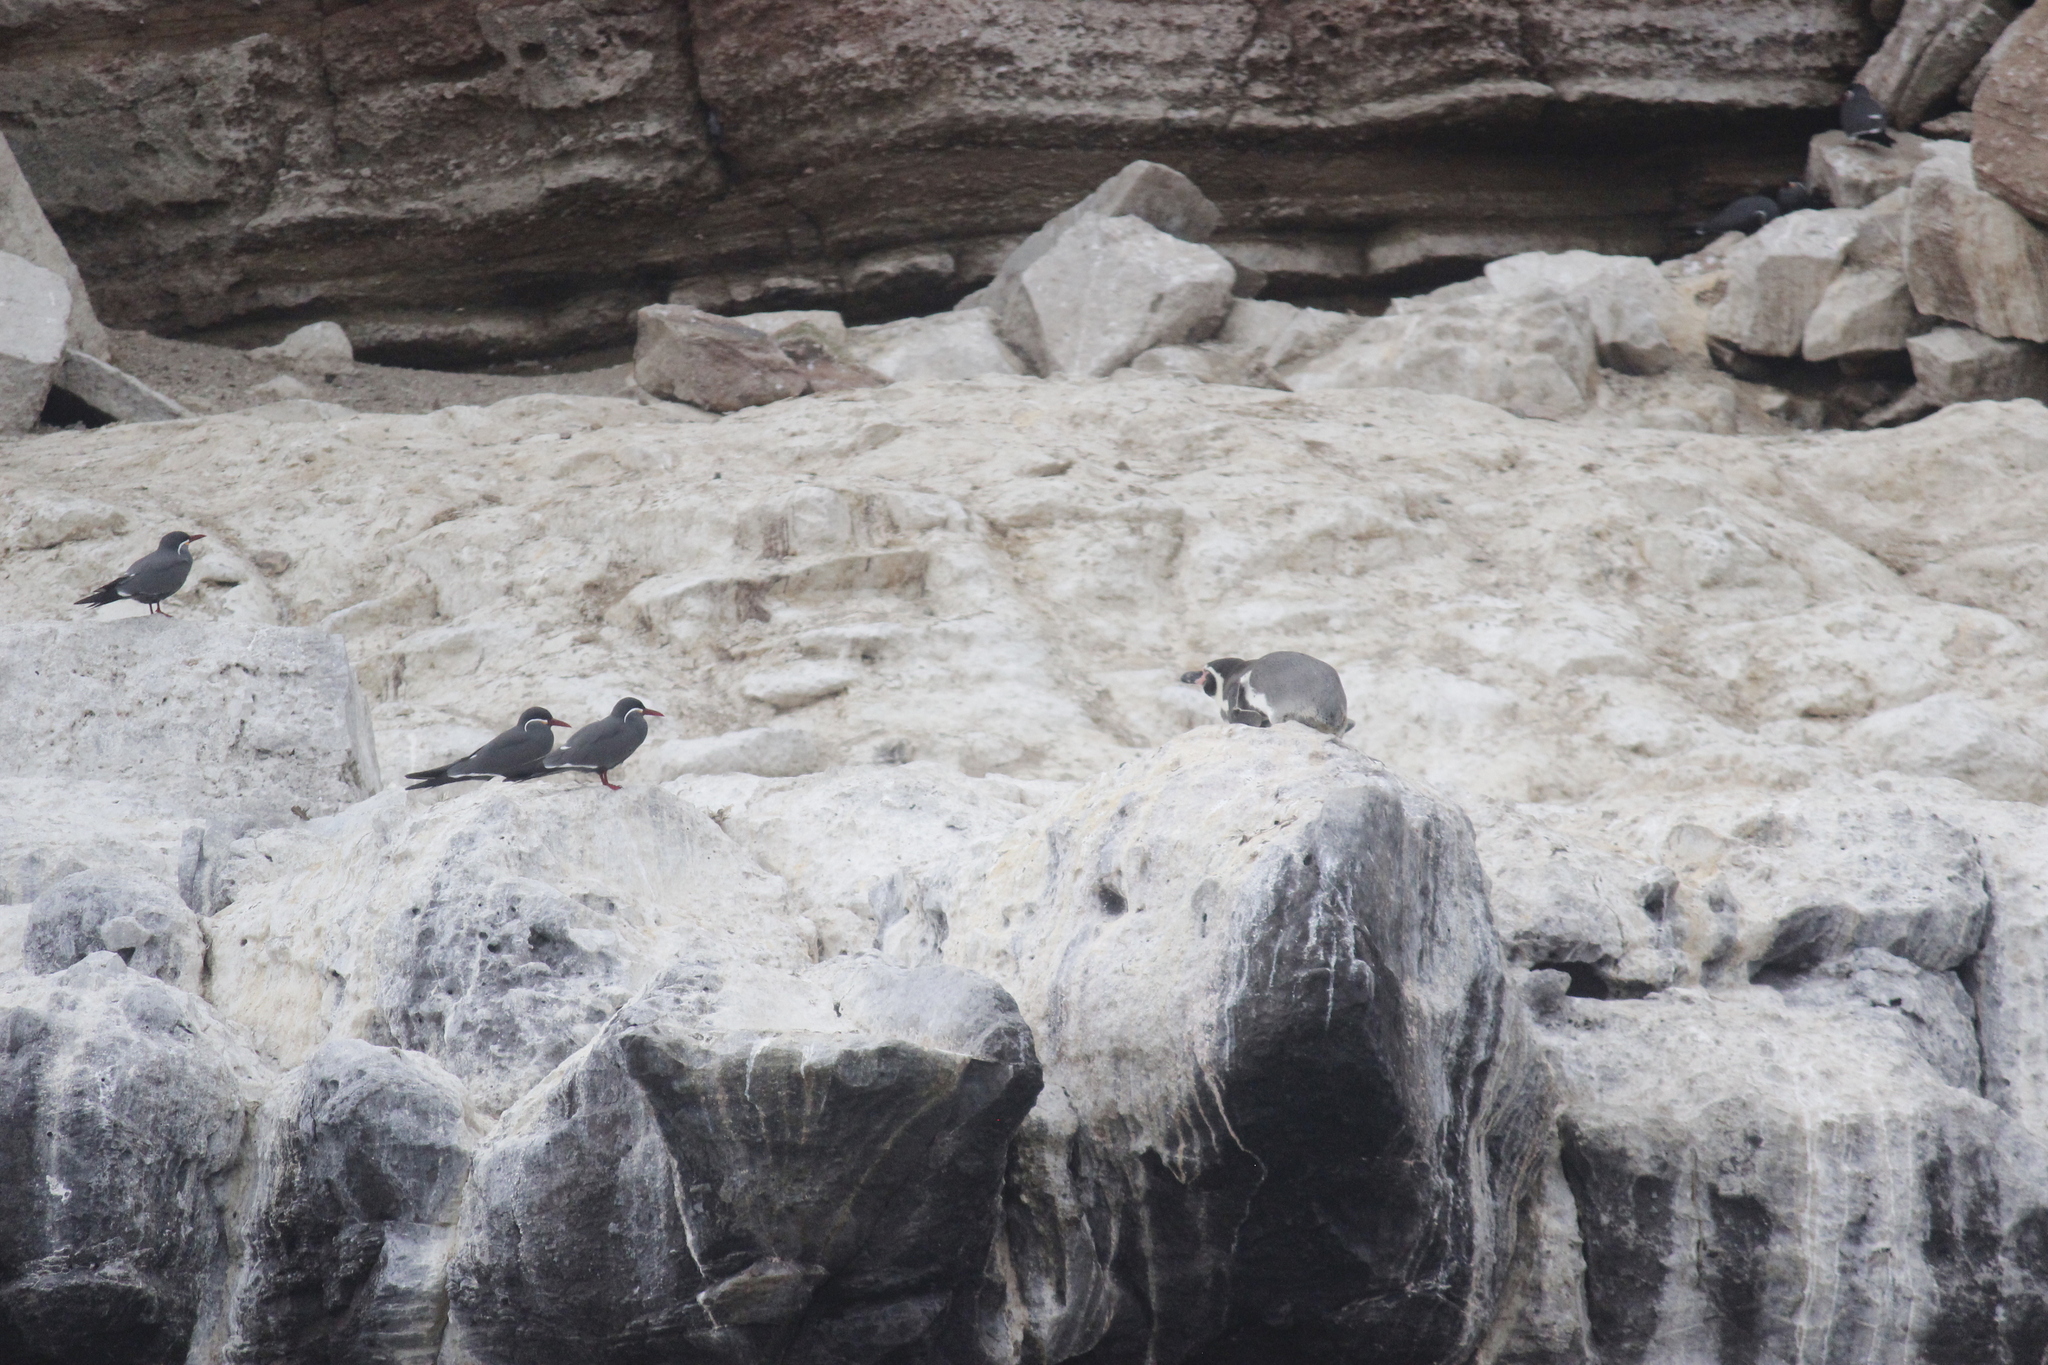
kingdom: Animalia
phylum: Chordata
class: Aves
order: Sphenisciformes
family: Spheniscidae
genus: Spheniscus
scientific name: Spheniscus humboldti
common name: Humboldt penguin
